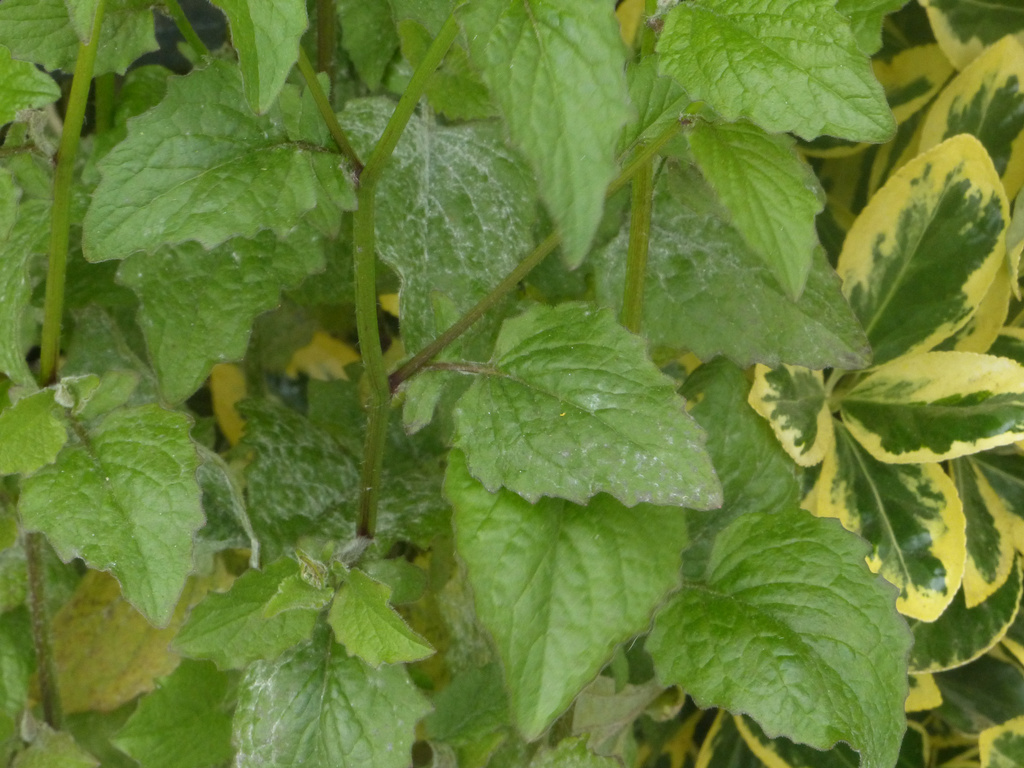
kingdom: Plantae
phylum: Tracheophyta
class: Magnoliopsida
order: Asterales
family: Asteraceae
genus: Lapsana
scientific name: Lapsana communis
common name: Nipplewort
